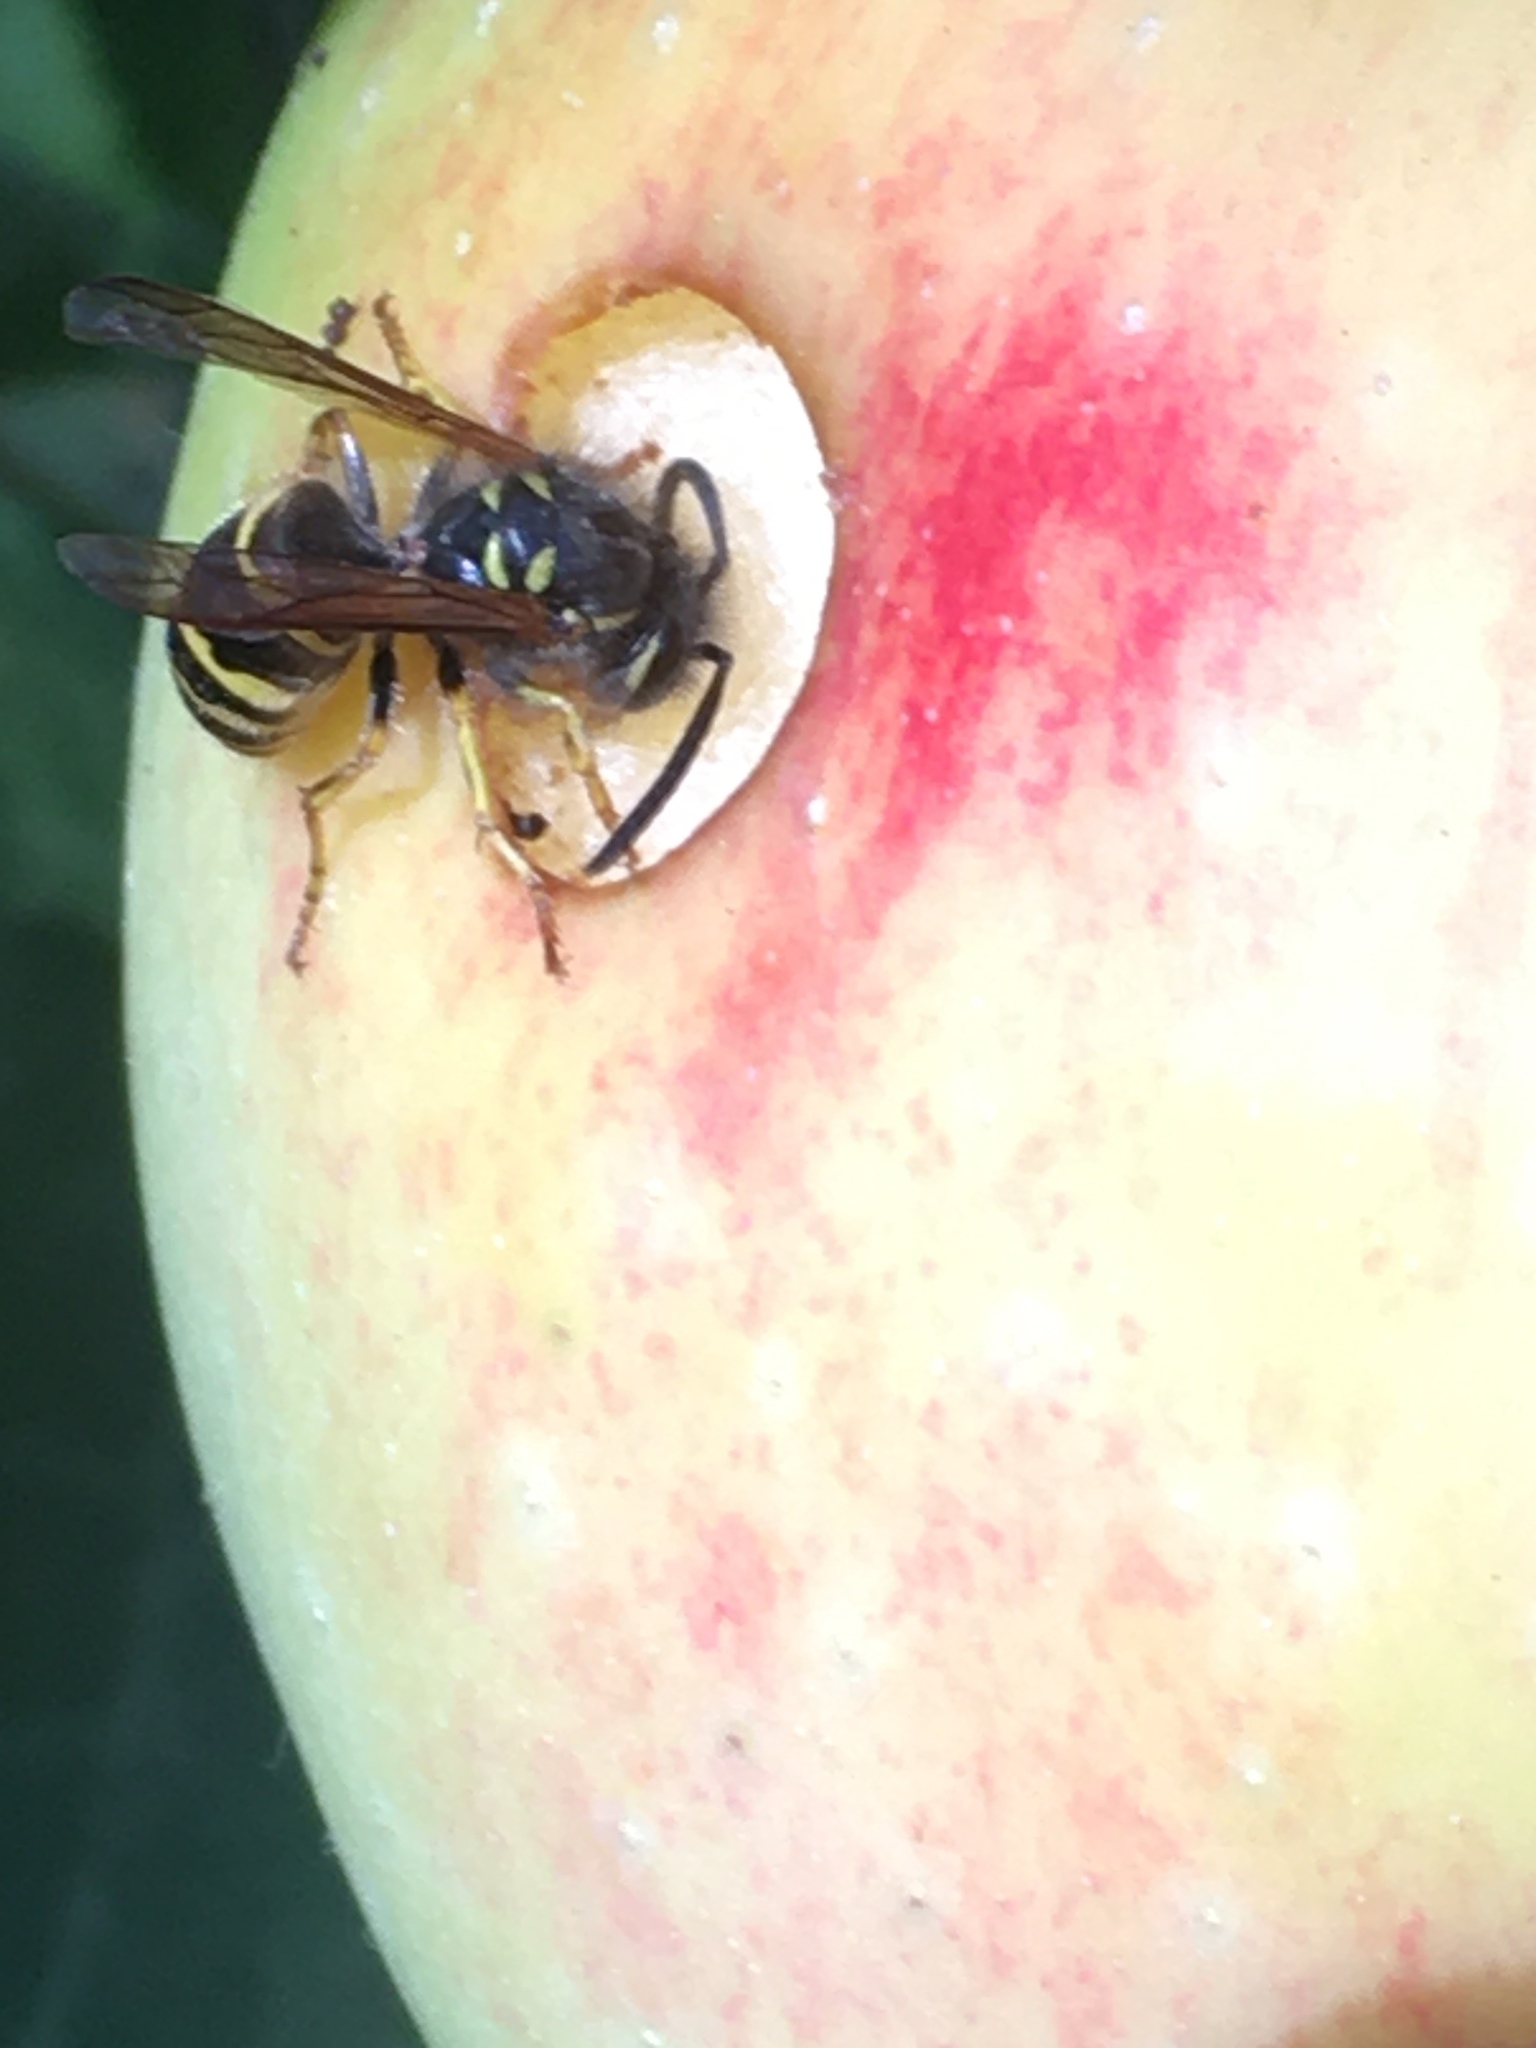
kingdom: Animalia
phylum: Arthropoda
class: Insecta
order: Hymenoptera
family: Vespidae
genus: Vespula
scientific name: Vespula alascensis
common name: Alaska yellowjacket
